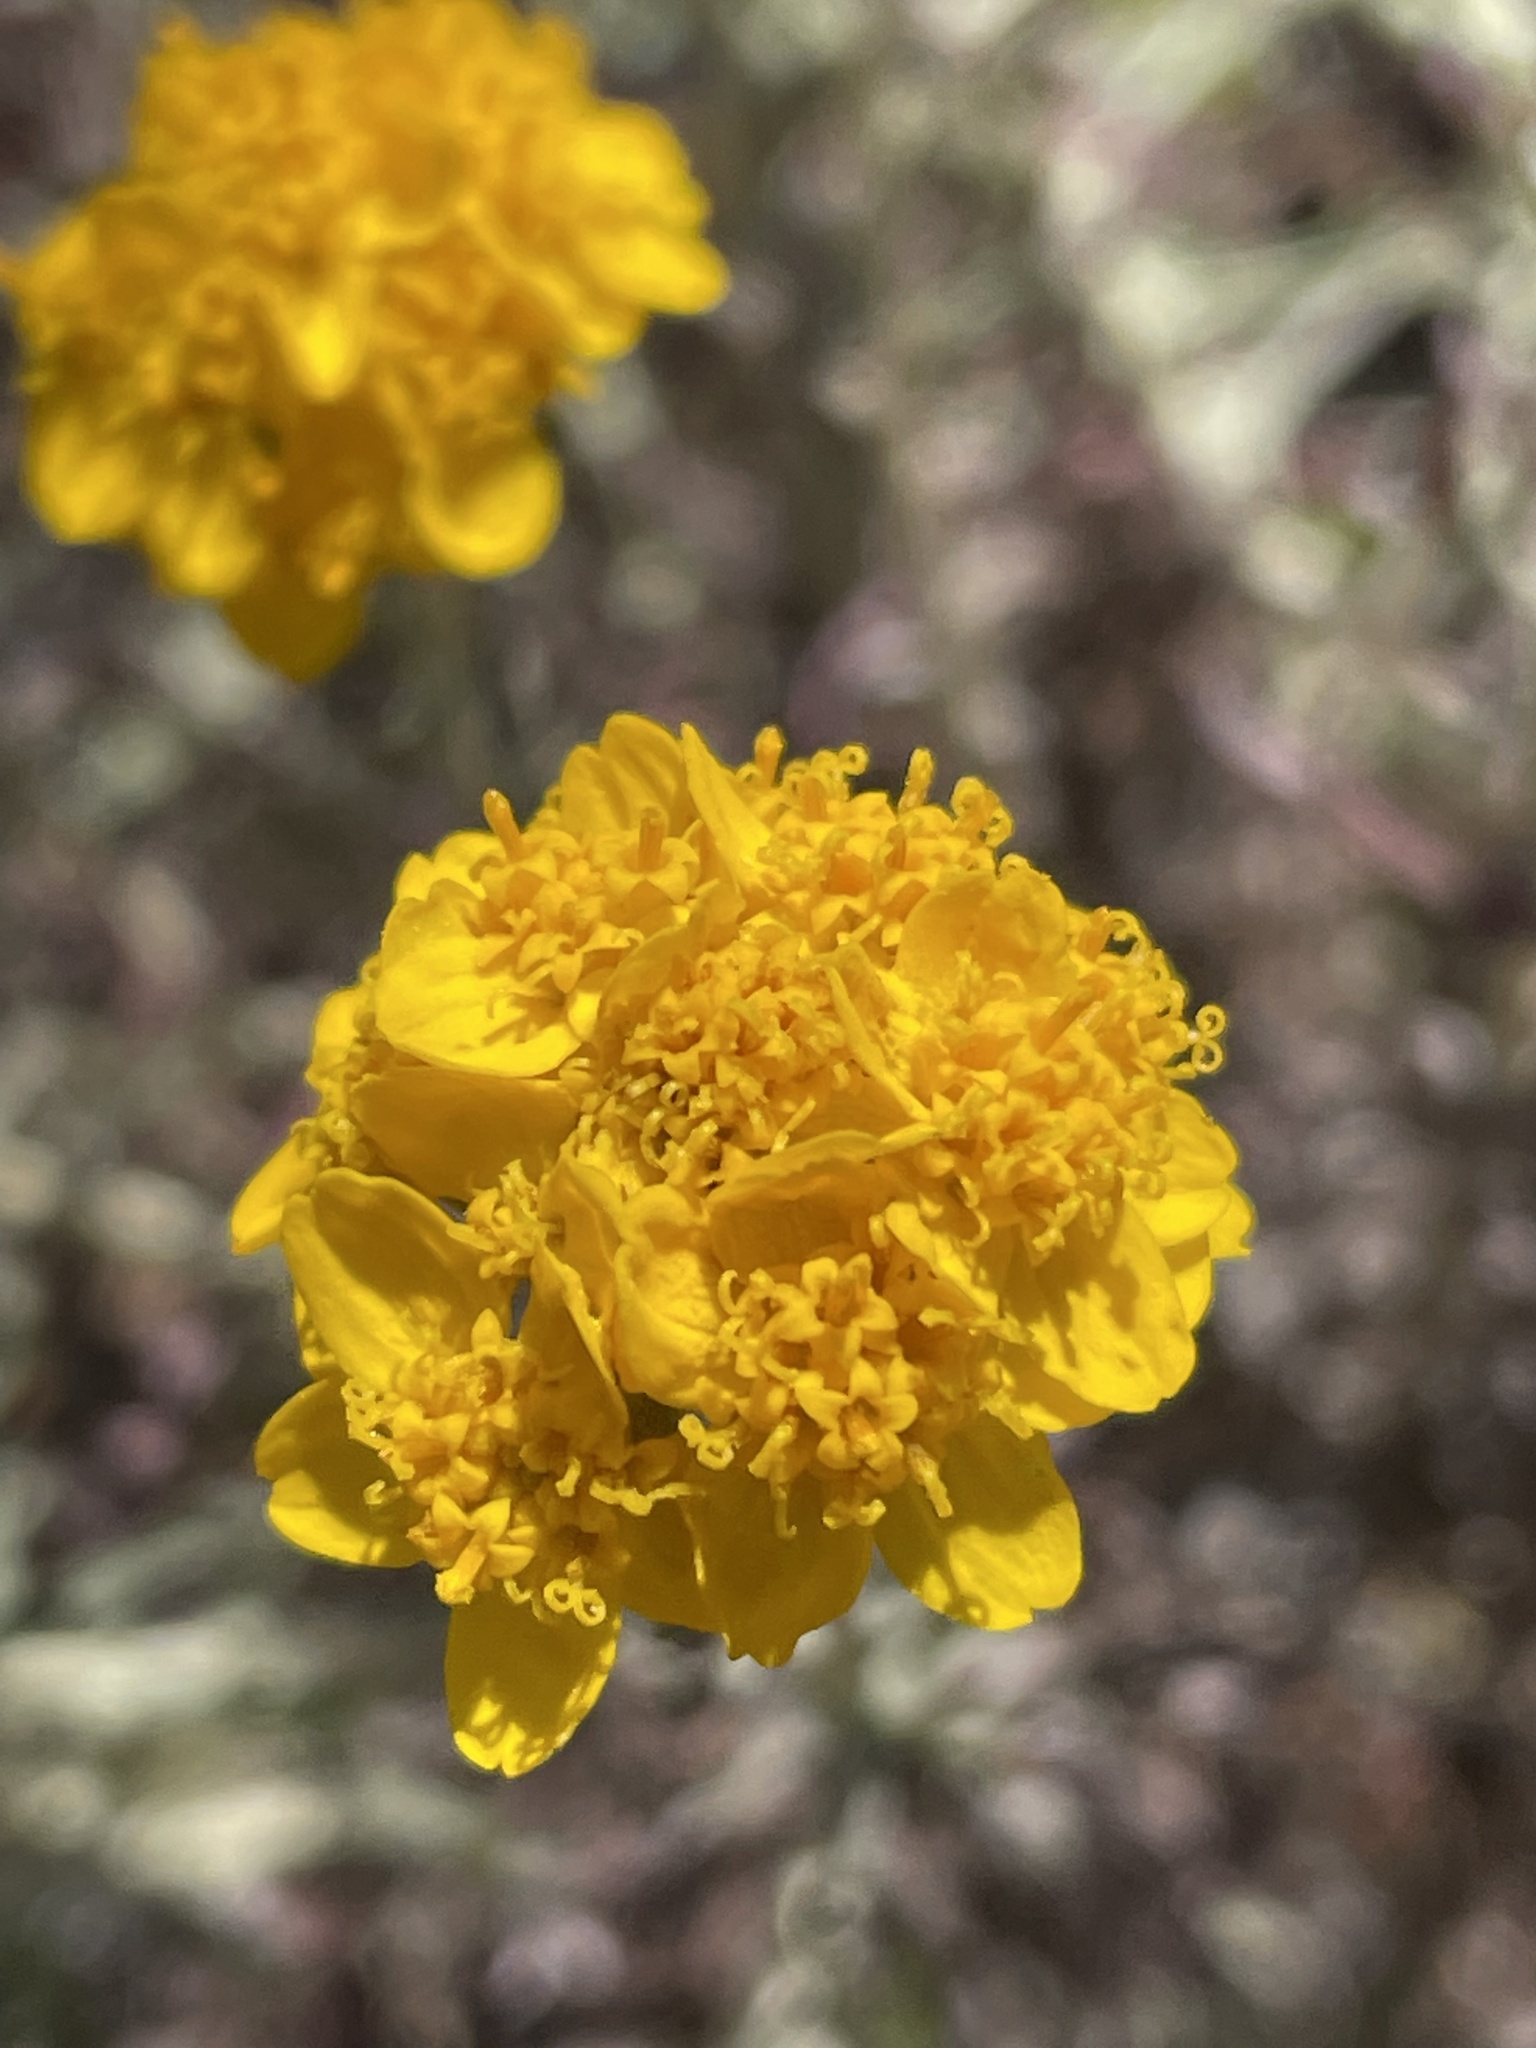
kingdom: Plantae
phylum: Tracheophyta
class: Magnoliopsida
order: Asterales
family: Asteraceae
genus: Eriophyllum
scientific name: Eriophyllum confertiflorum
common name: Golden-yarrow
